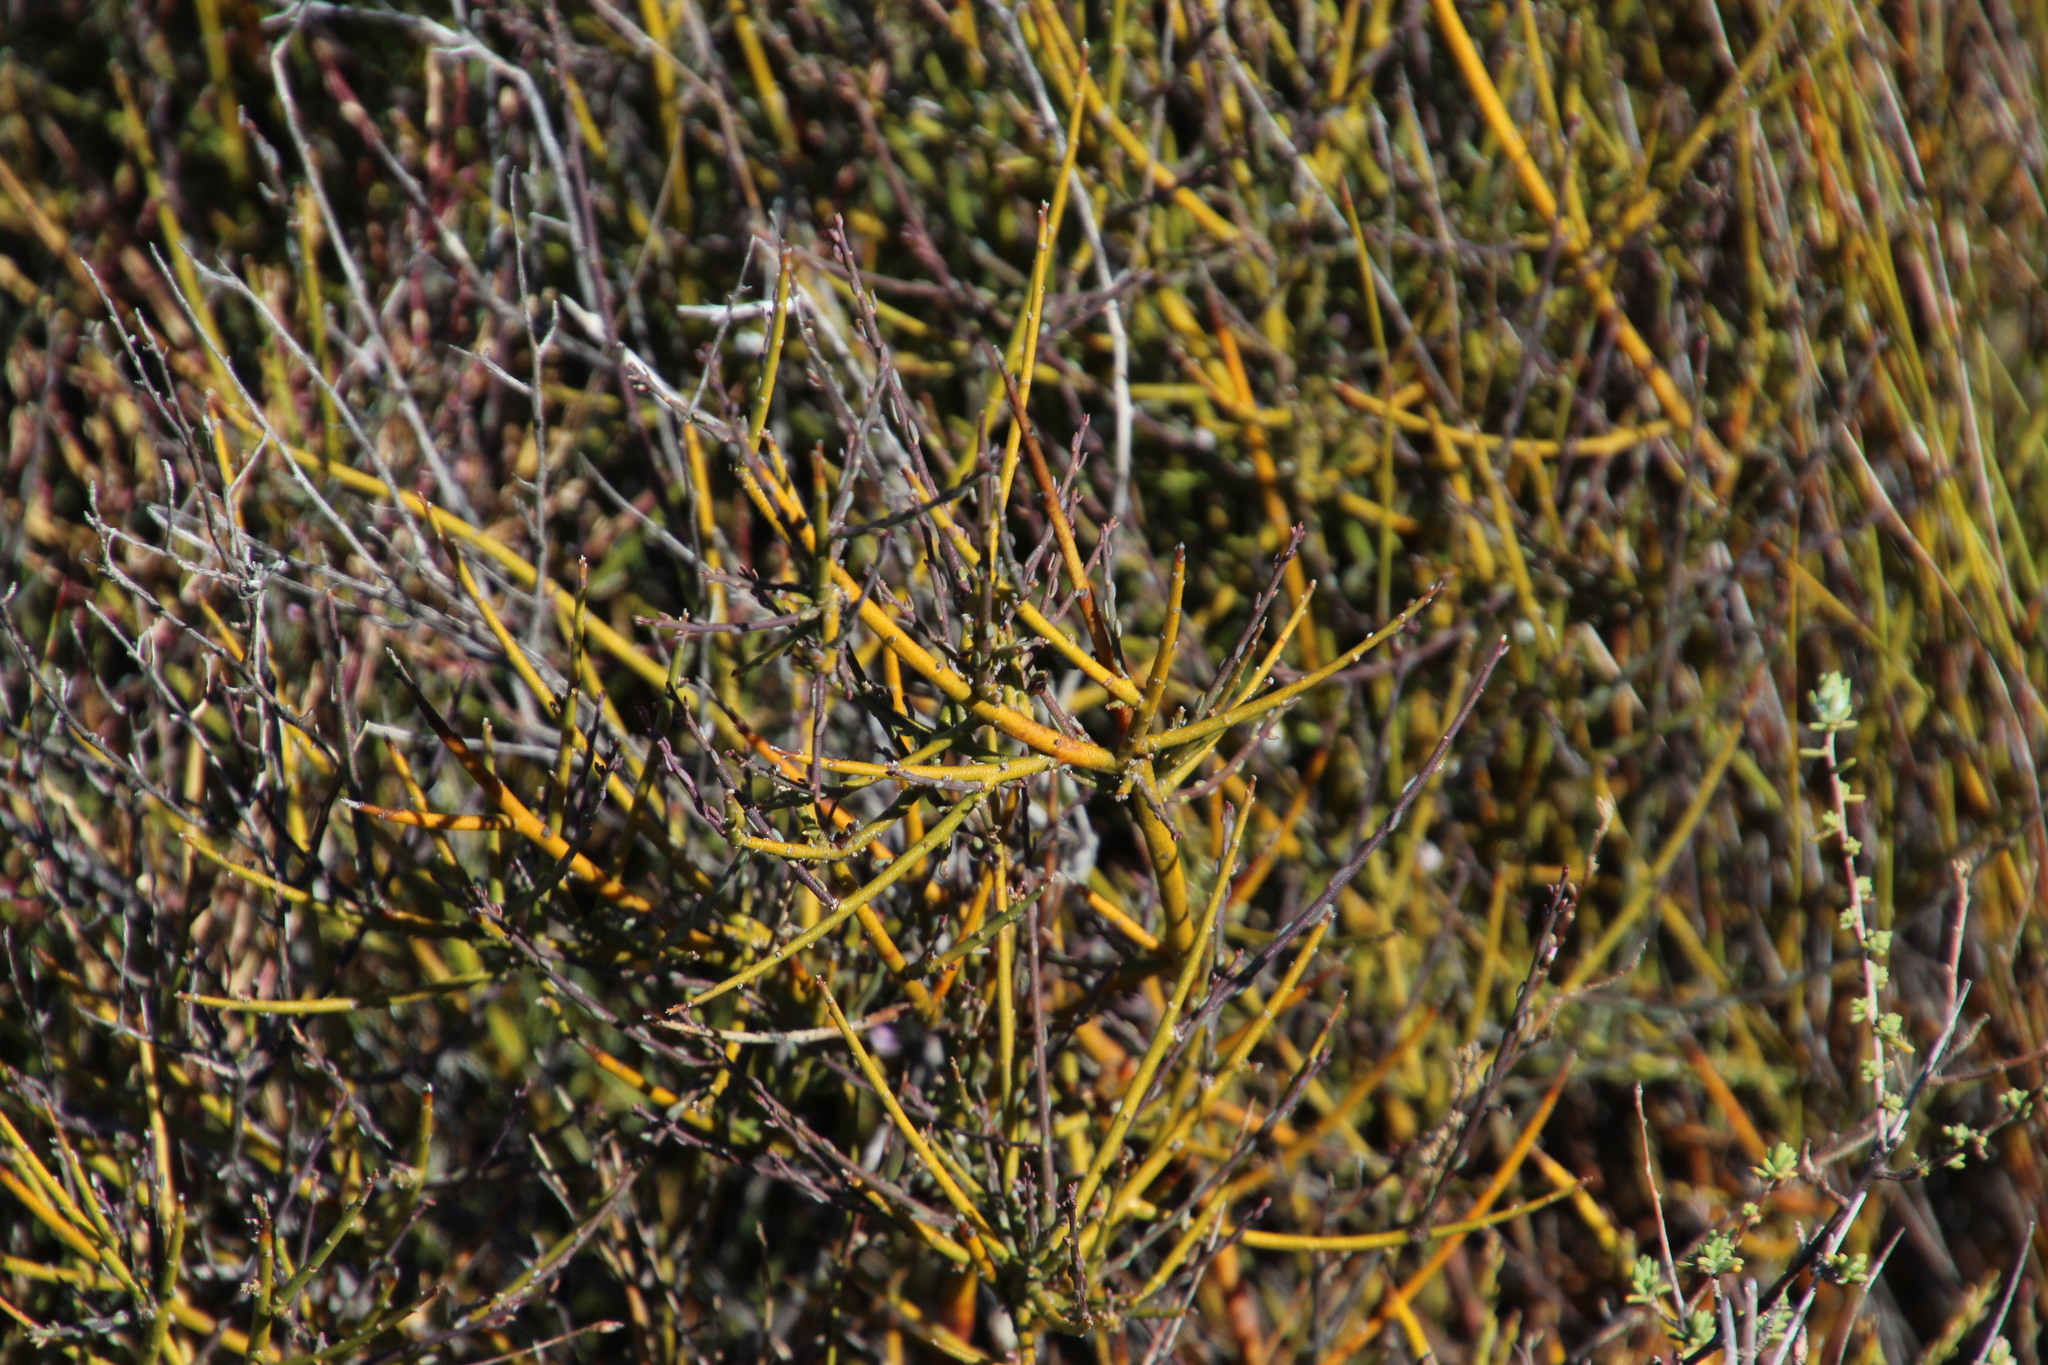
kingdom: Plantae
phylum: Tracheophyta
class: Magnoliopsida
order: Fabales
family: Polygalaceae
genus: Muraltia
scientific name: Muraltia rigida
